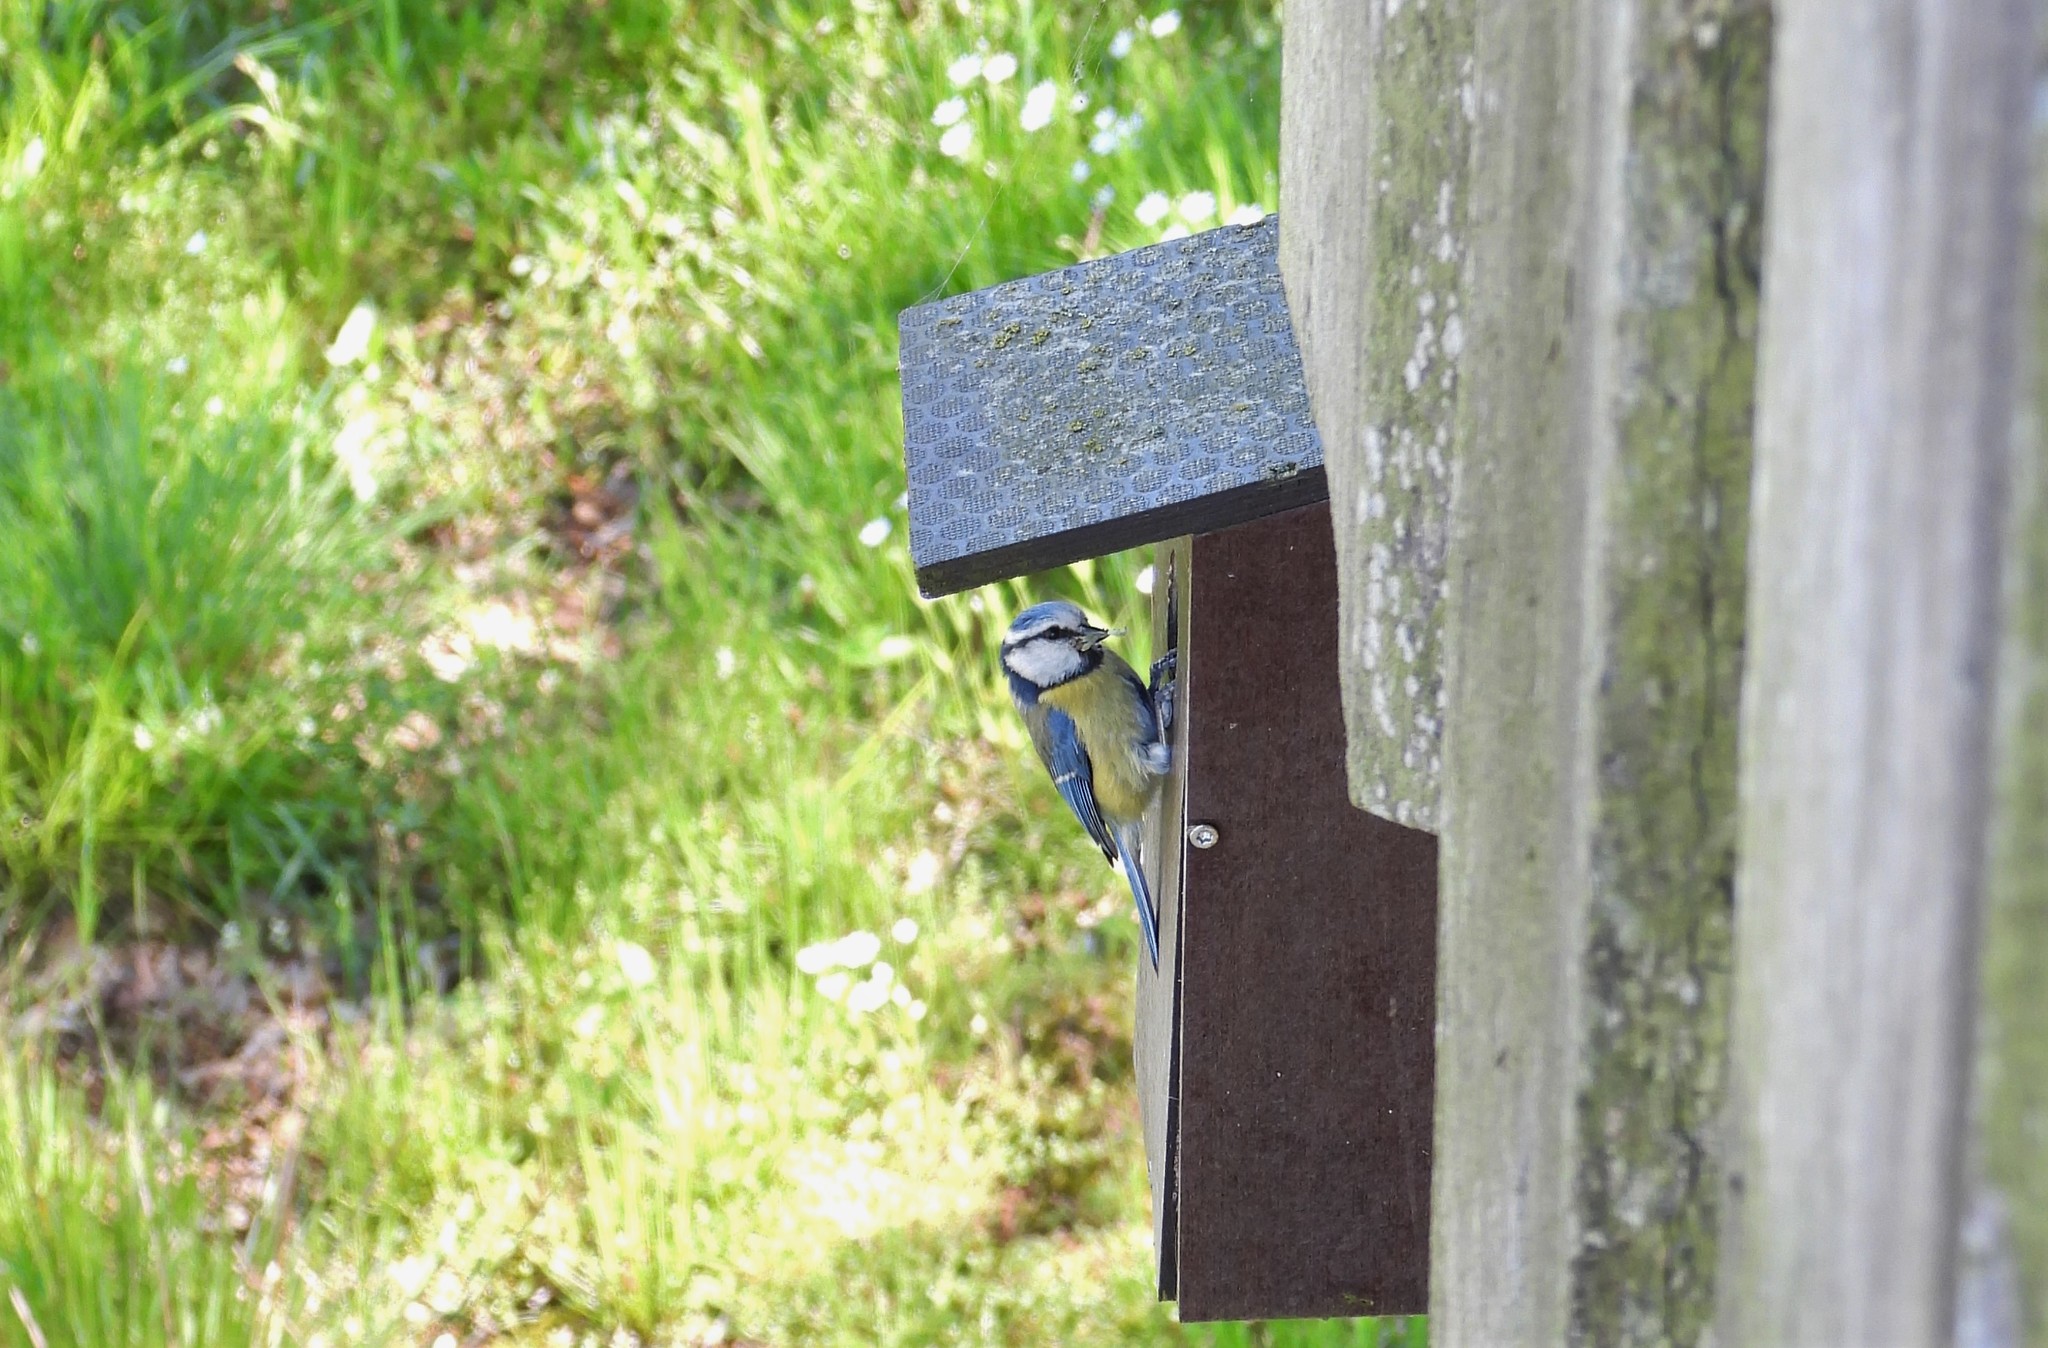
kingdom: Animalia
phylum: Chordata
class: Aves
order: Passeriformes
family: Paridae
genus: Cyanistes
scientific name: Cyanistes caeruleus
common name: Eurasian blue tit
